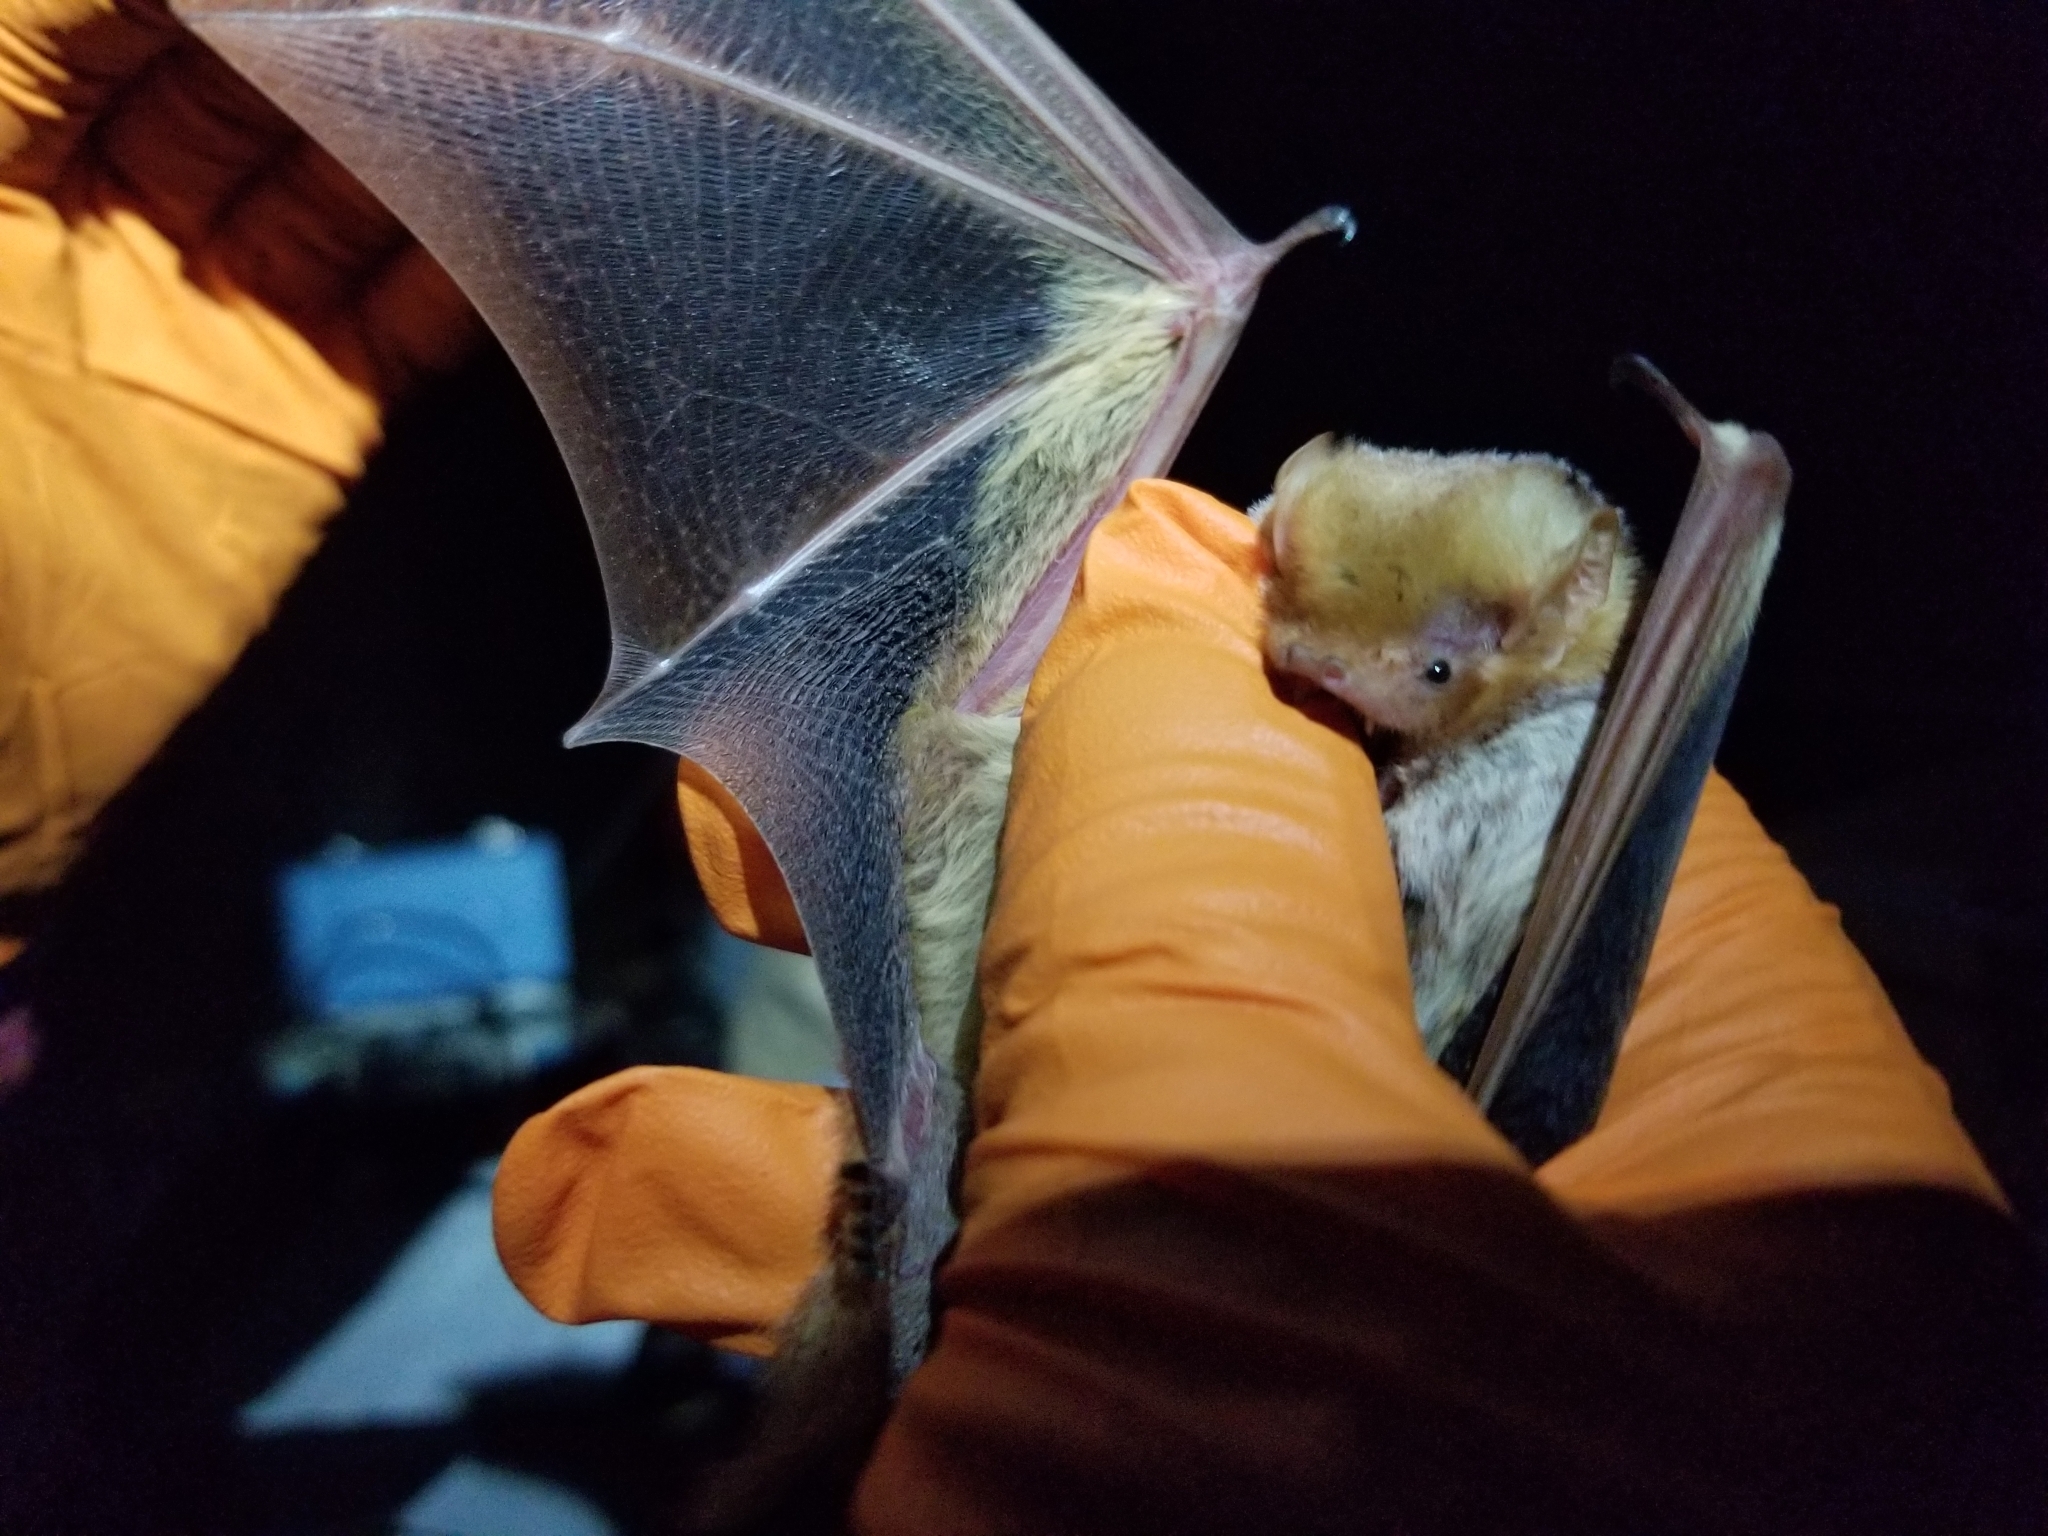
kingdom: Animalia
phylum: Chordata
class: Mammalia
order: Chiroptera
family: Vespertilionidae
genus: Lasiurus
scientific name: Lasiurus borealis
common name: Eastern red bat
